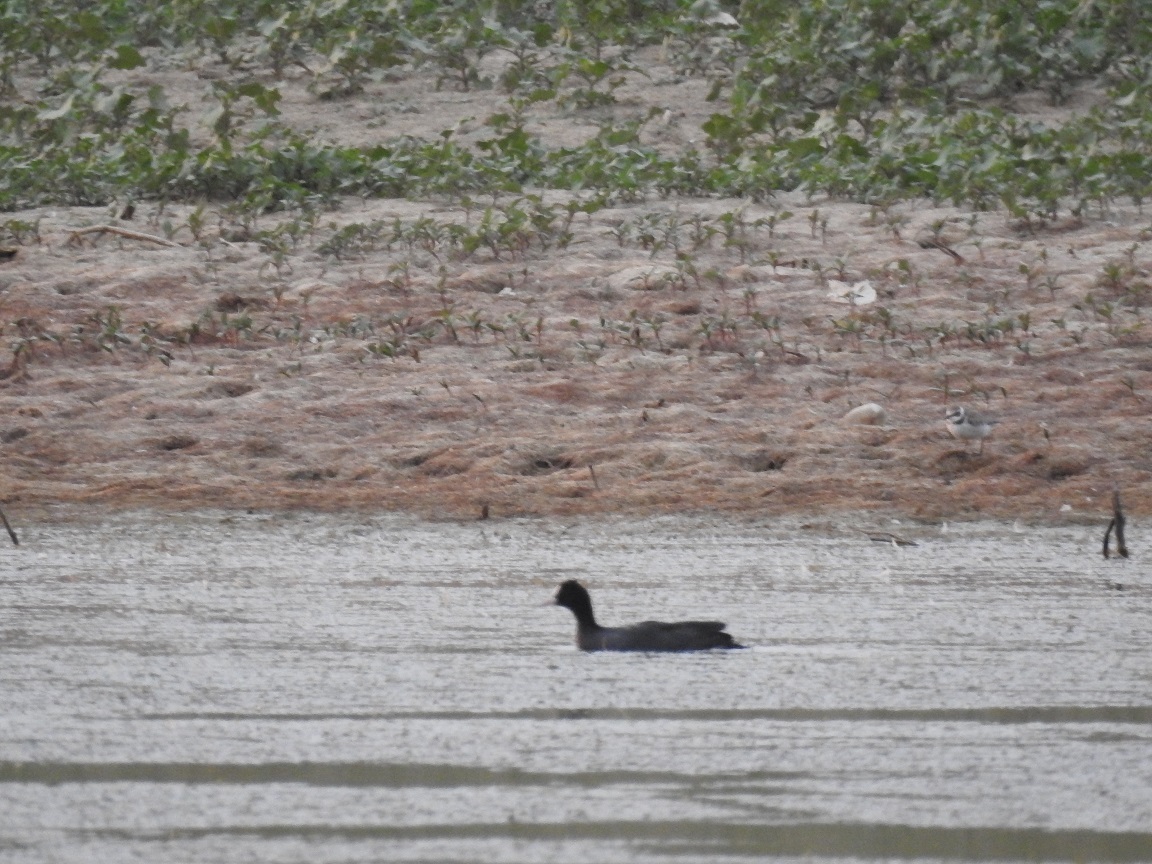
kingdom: Animalia
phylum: Chordata
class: Aves
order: Gruiformes
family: Rallidae
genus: Fulica
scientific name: Fulica atra
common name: Eurasian coot
